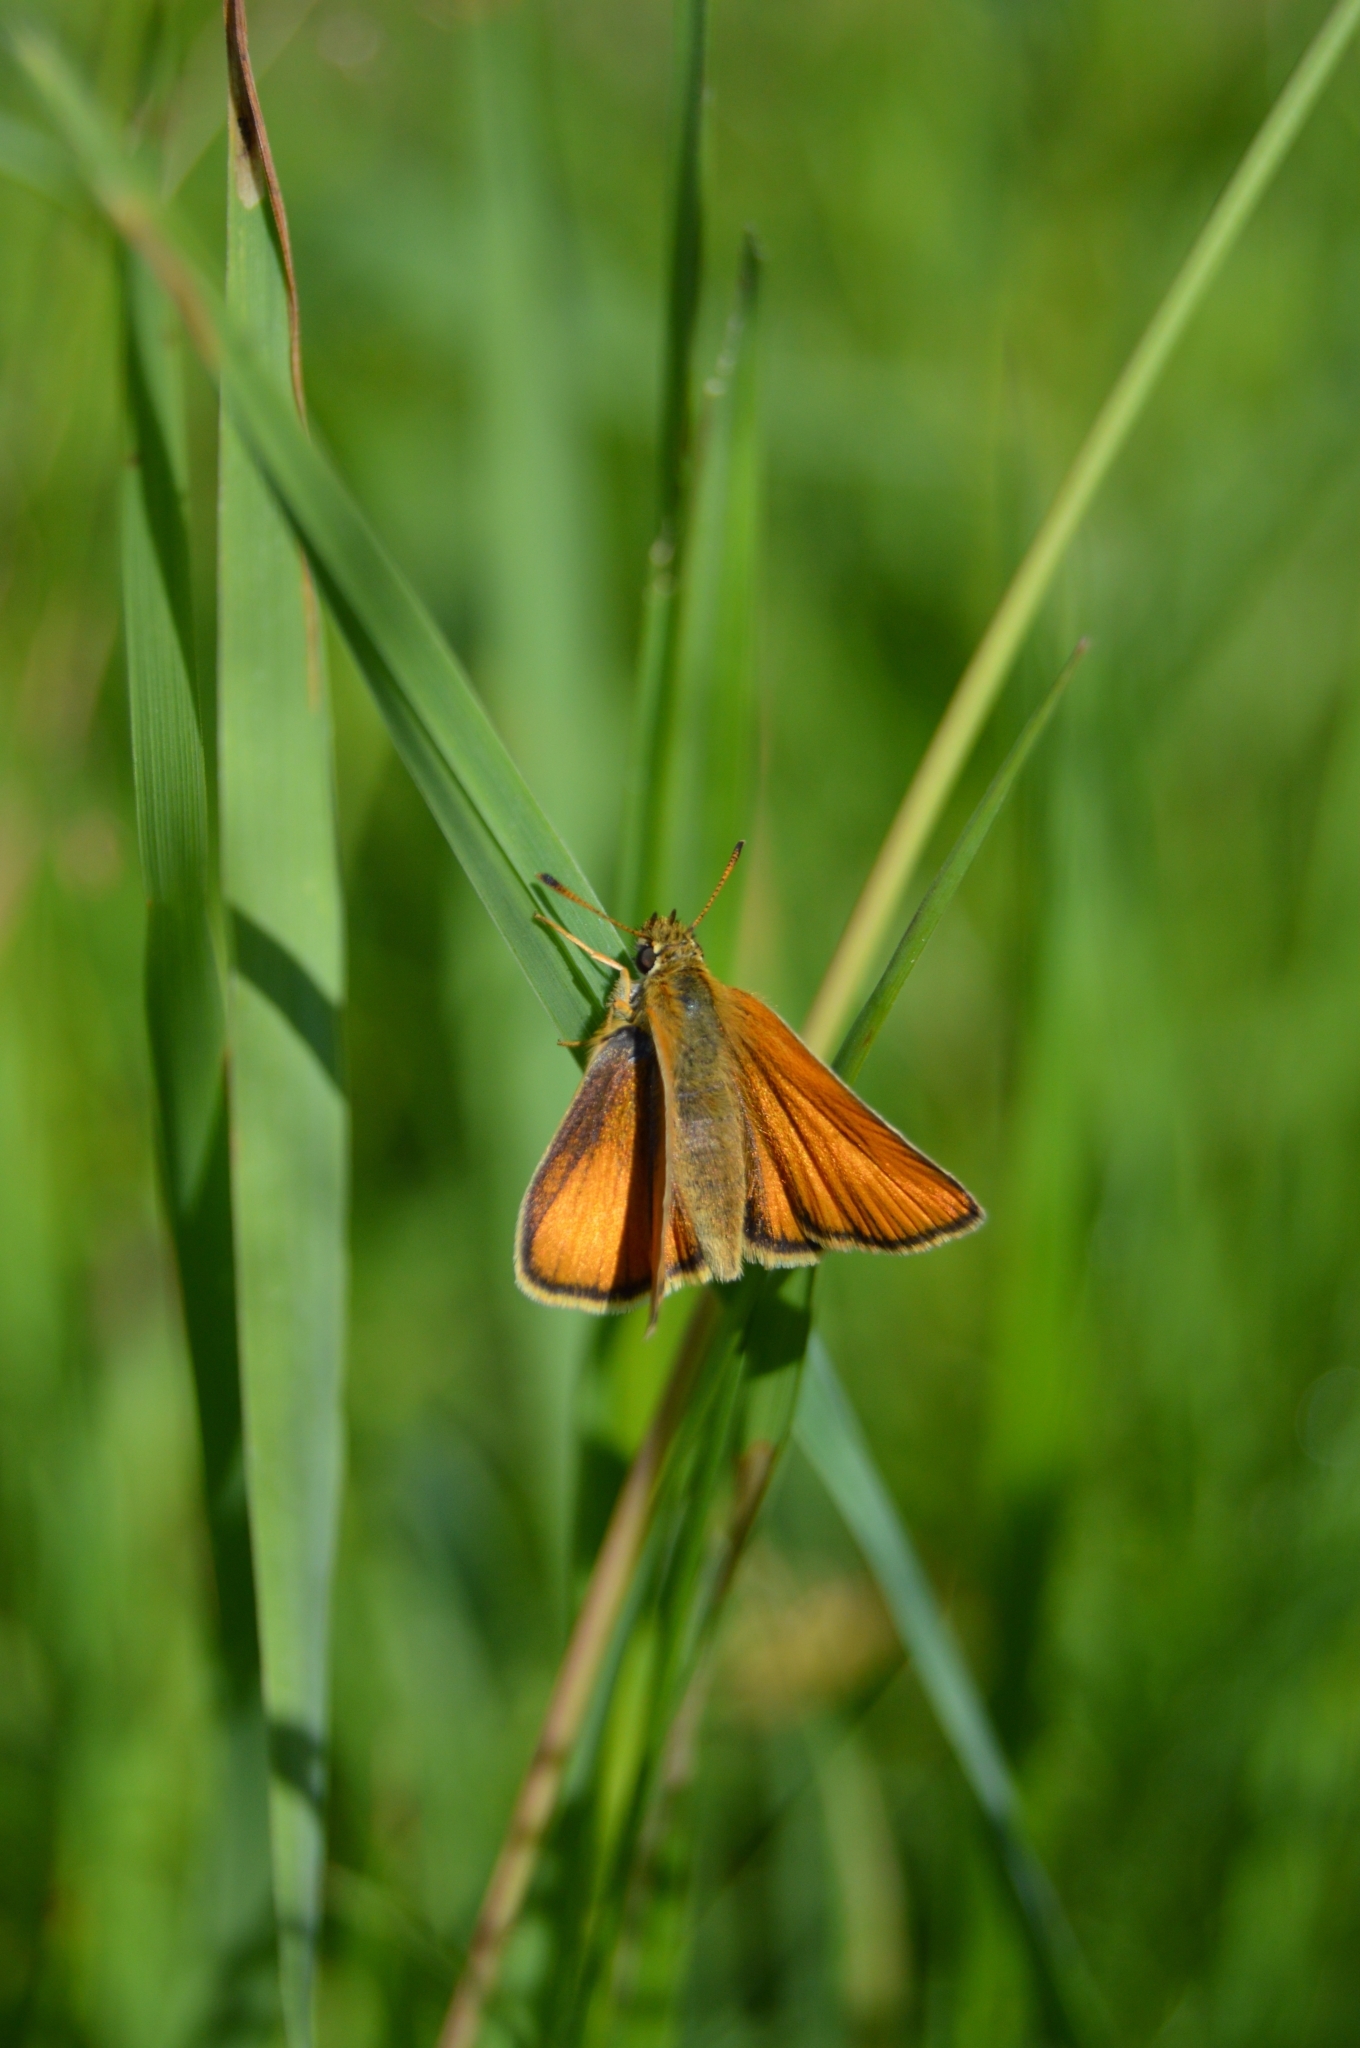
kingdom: Animalia
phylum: Arthropoda
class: Insecta
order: Lepidoptera
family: Hesperiidae
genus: Thymelicus
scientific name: Thymelicus lineola
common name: Essex skipper
